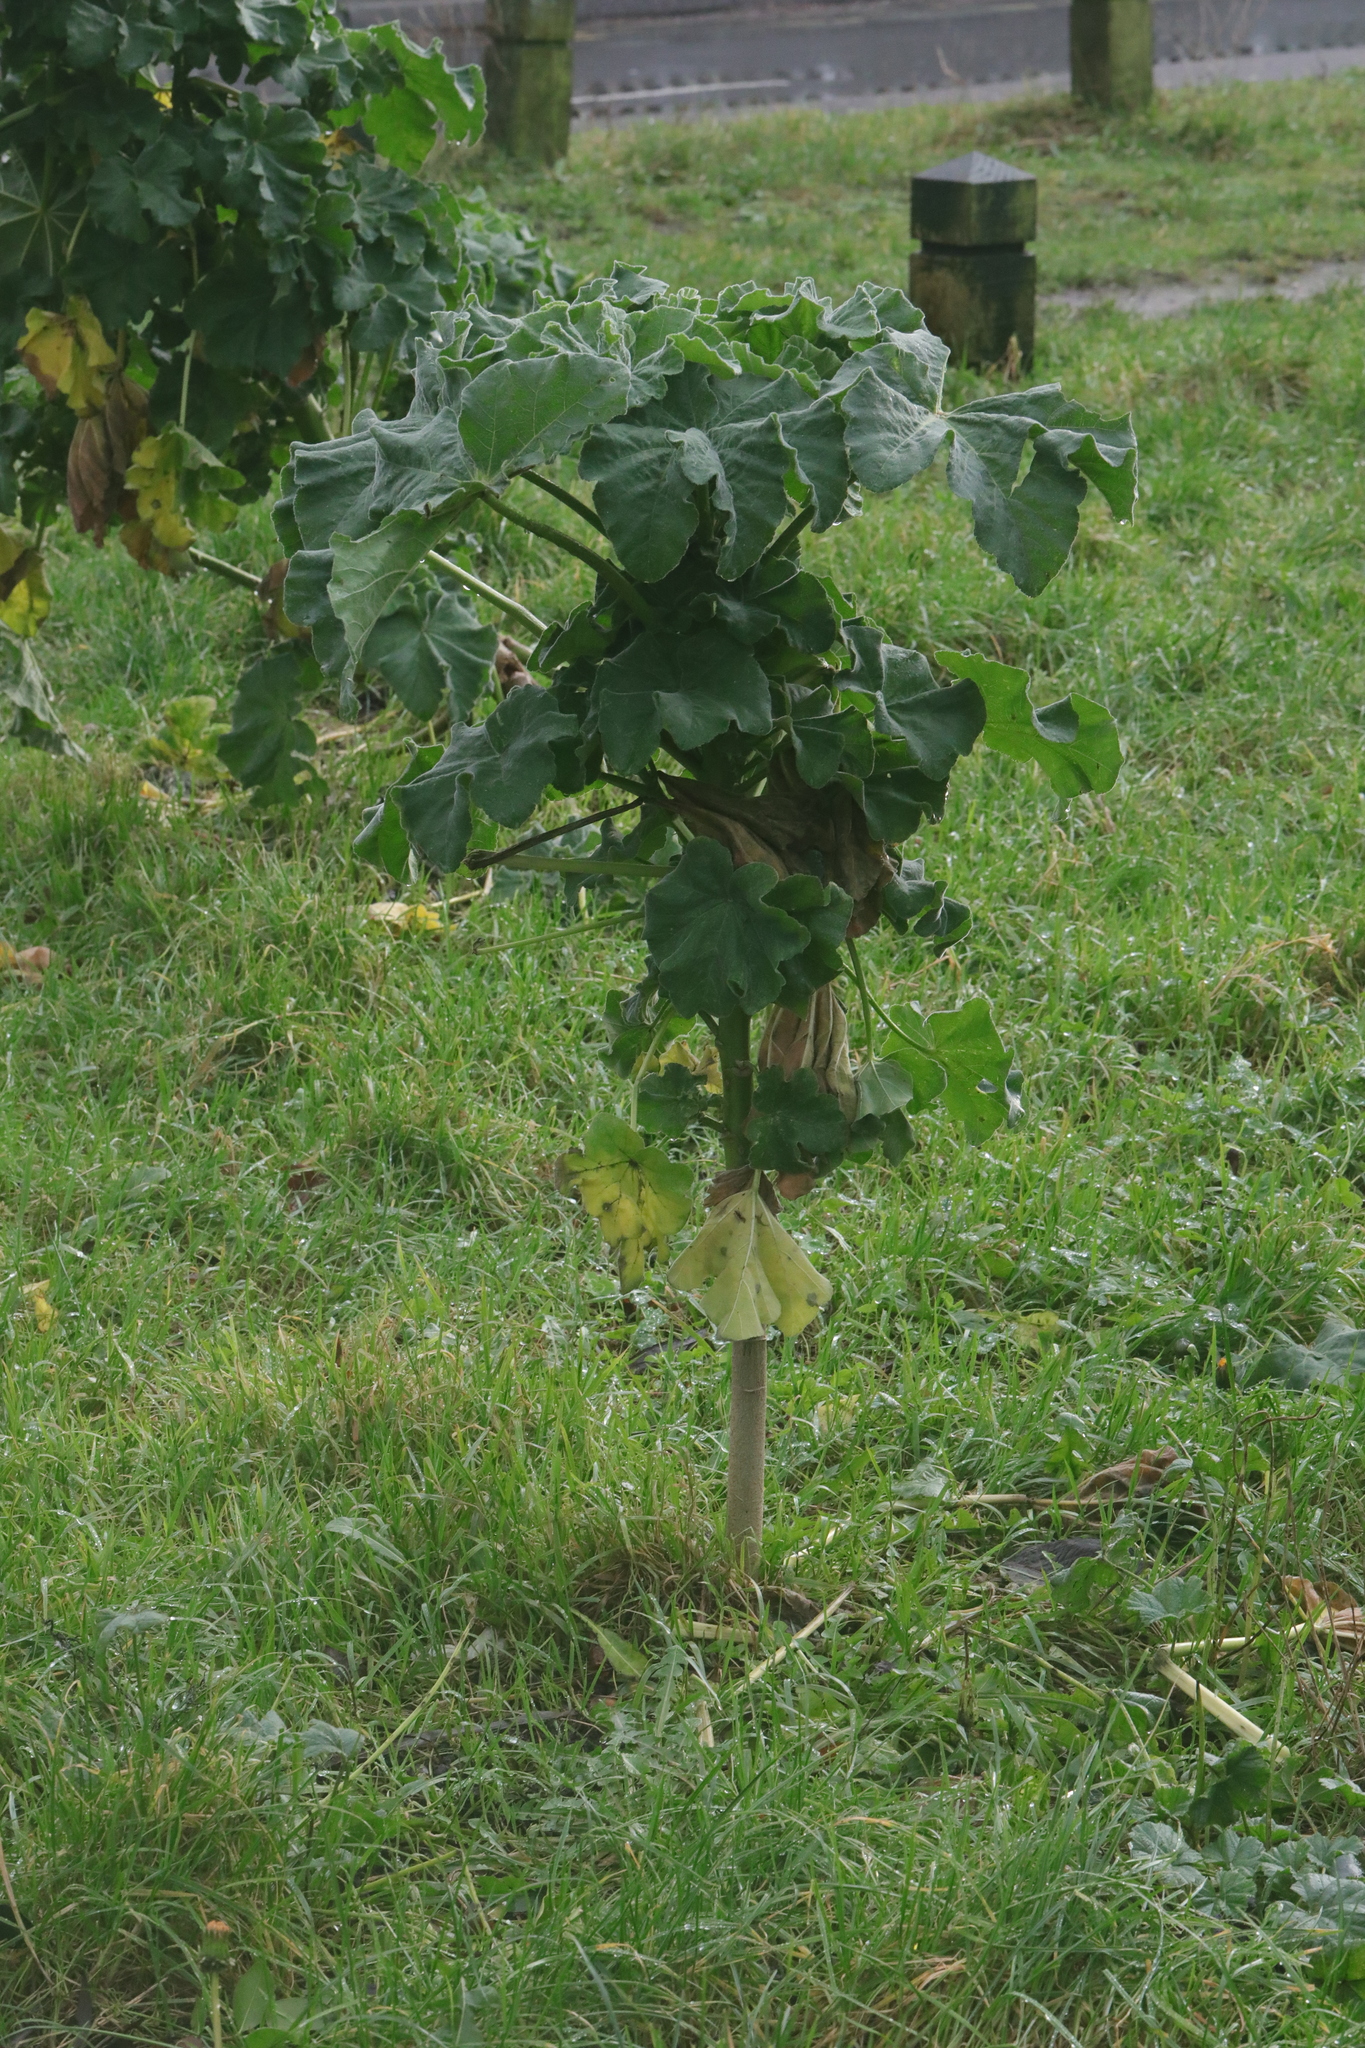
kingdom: Plantae
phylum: Tracheophyta
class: Magnoliopsida
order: Malvales
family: Malvaceae
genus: Malva
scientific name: Malva arborea
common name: Tree mallow
